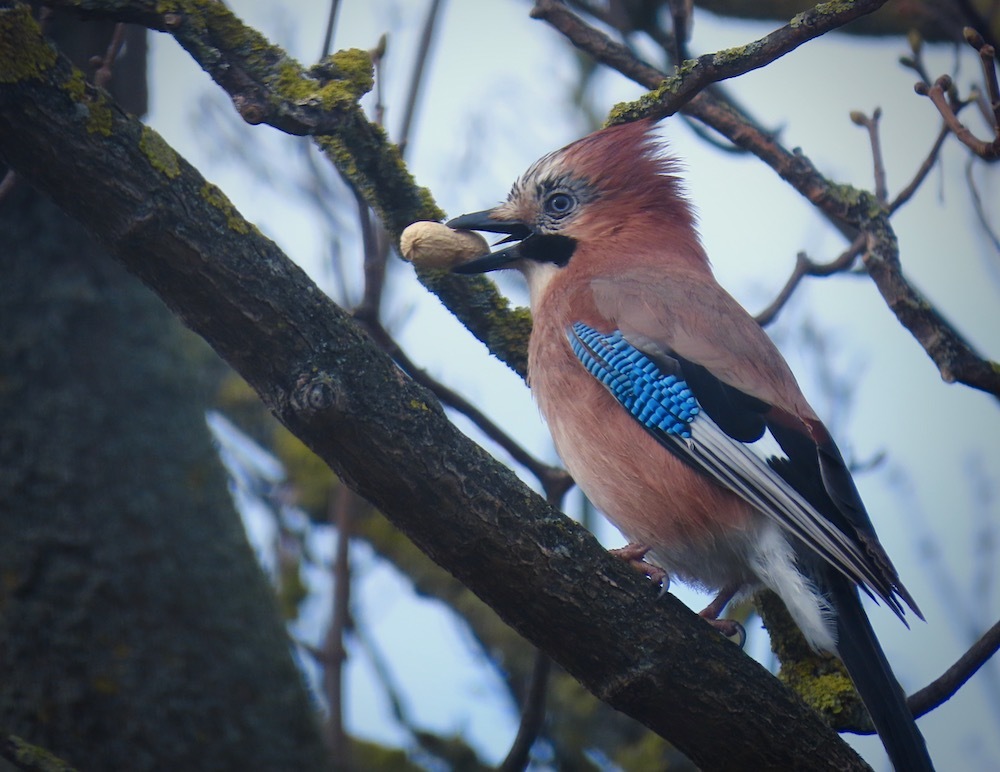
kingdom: Animalia
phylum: Chordata
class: Aves
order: Passeriformes
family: Corvidae
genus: Garrulus
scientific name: Garrulus glandarius
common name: Eurasian jay
